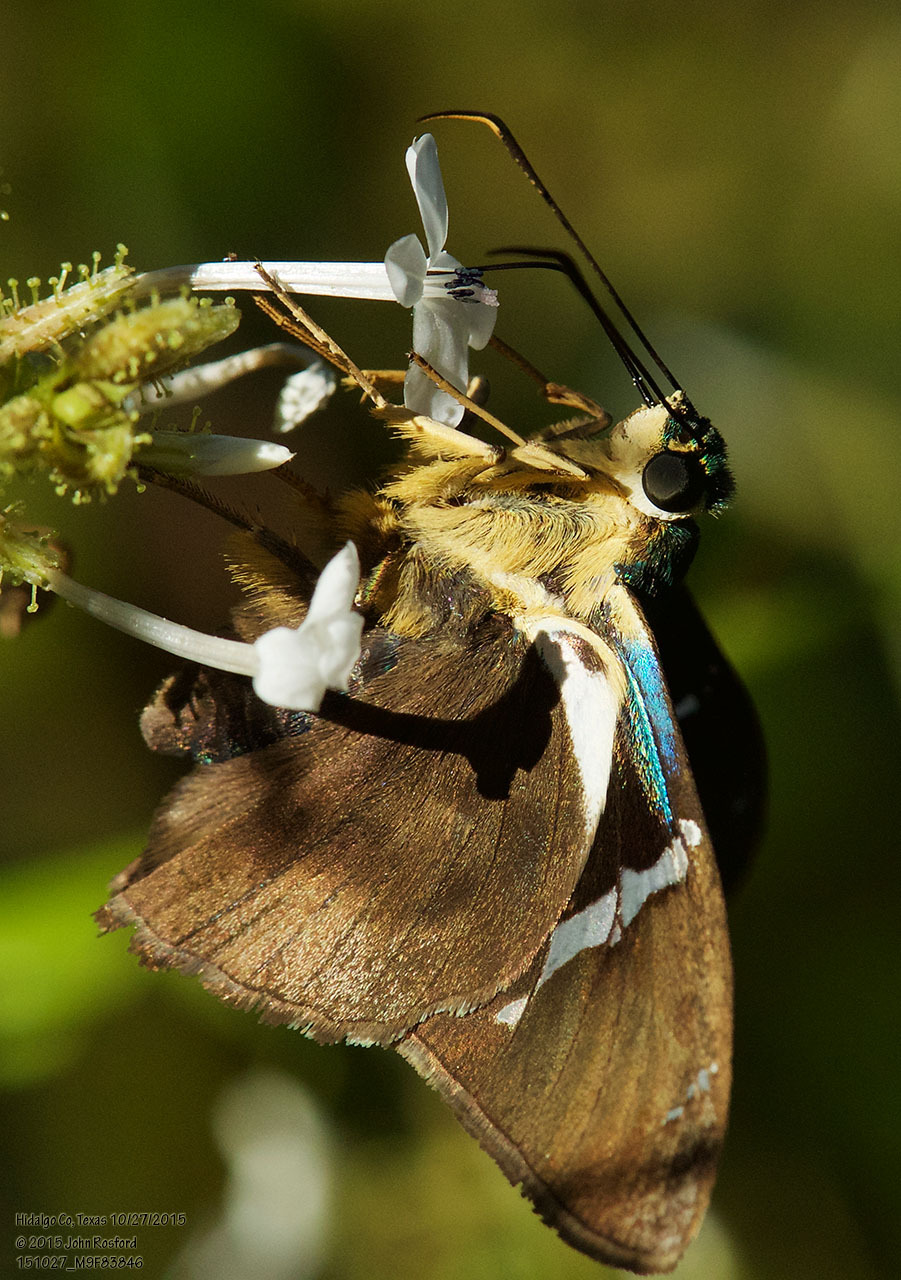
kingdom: Animalia
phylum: Arthropoda
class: Insecta
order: Lepidoptera
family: Hesperiidae
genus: Astraptes
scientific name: Astraptes fulgerator
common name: Two-barred flasher
